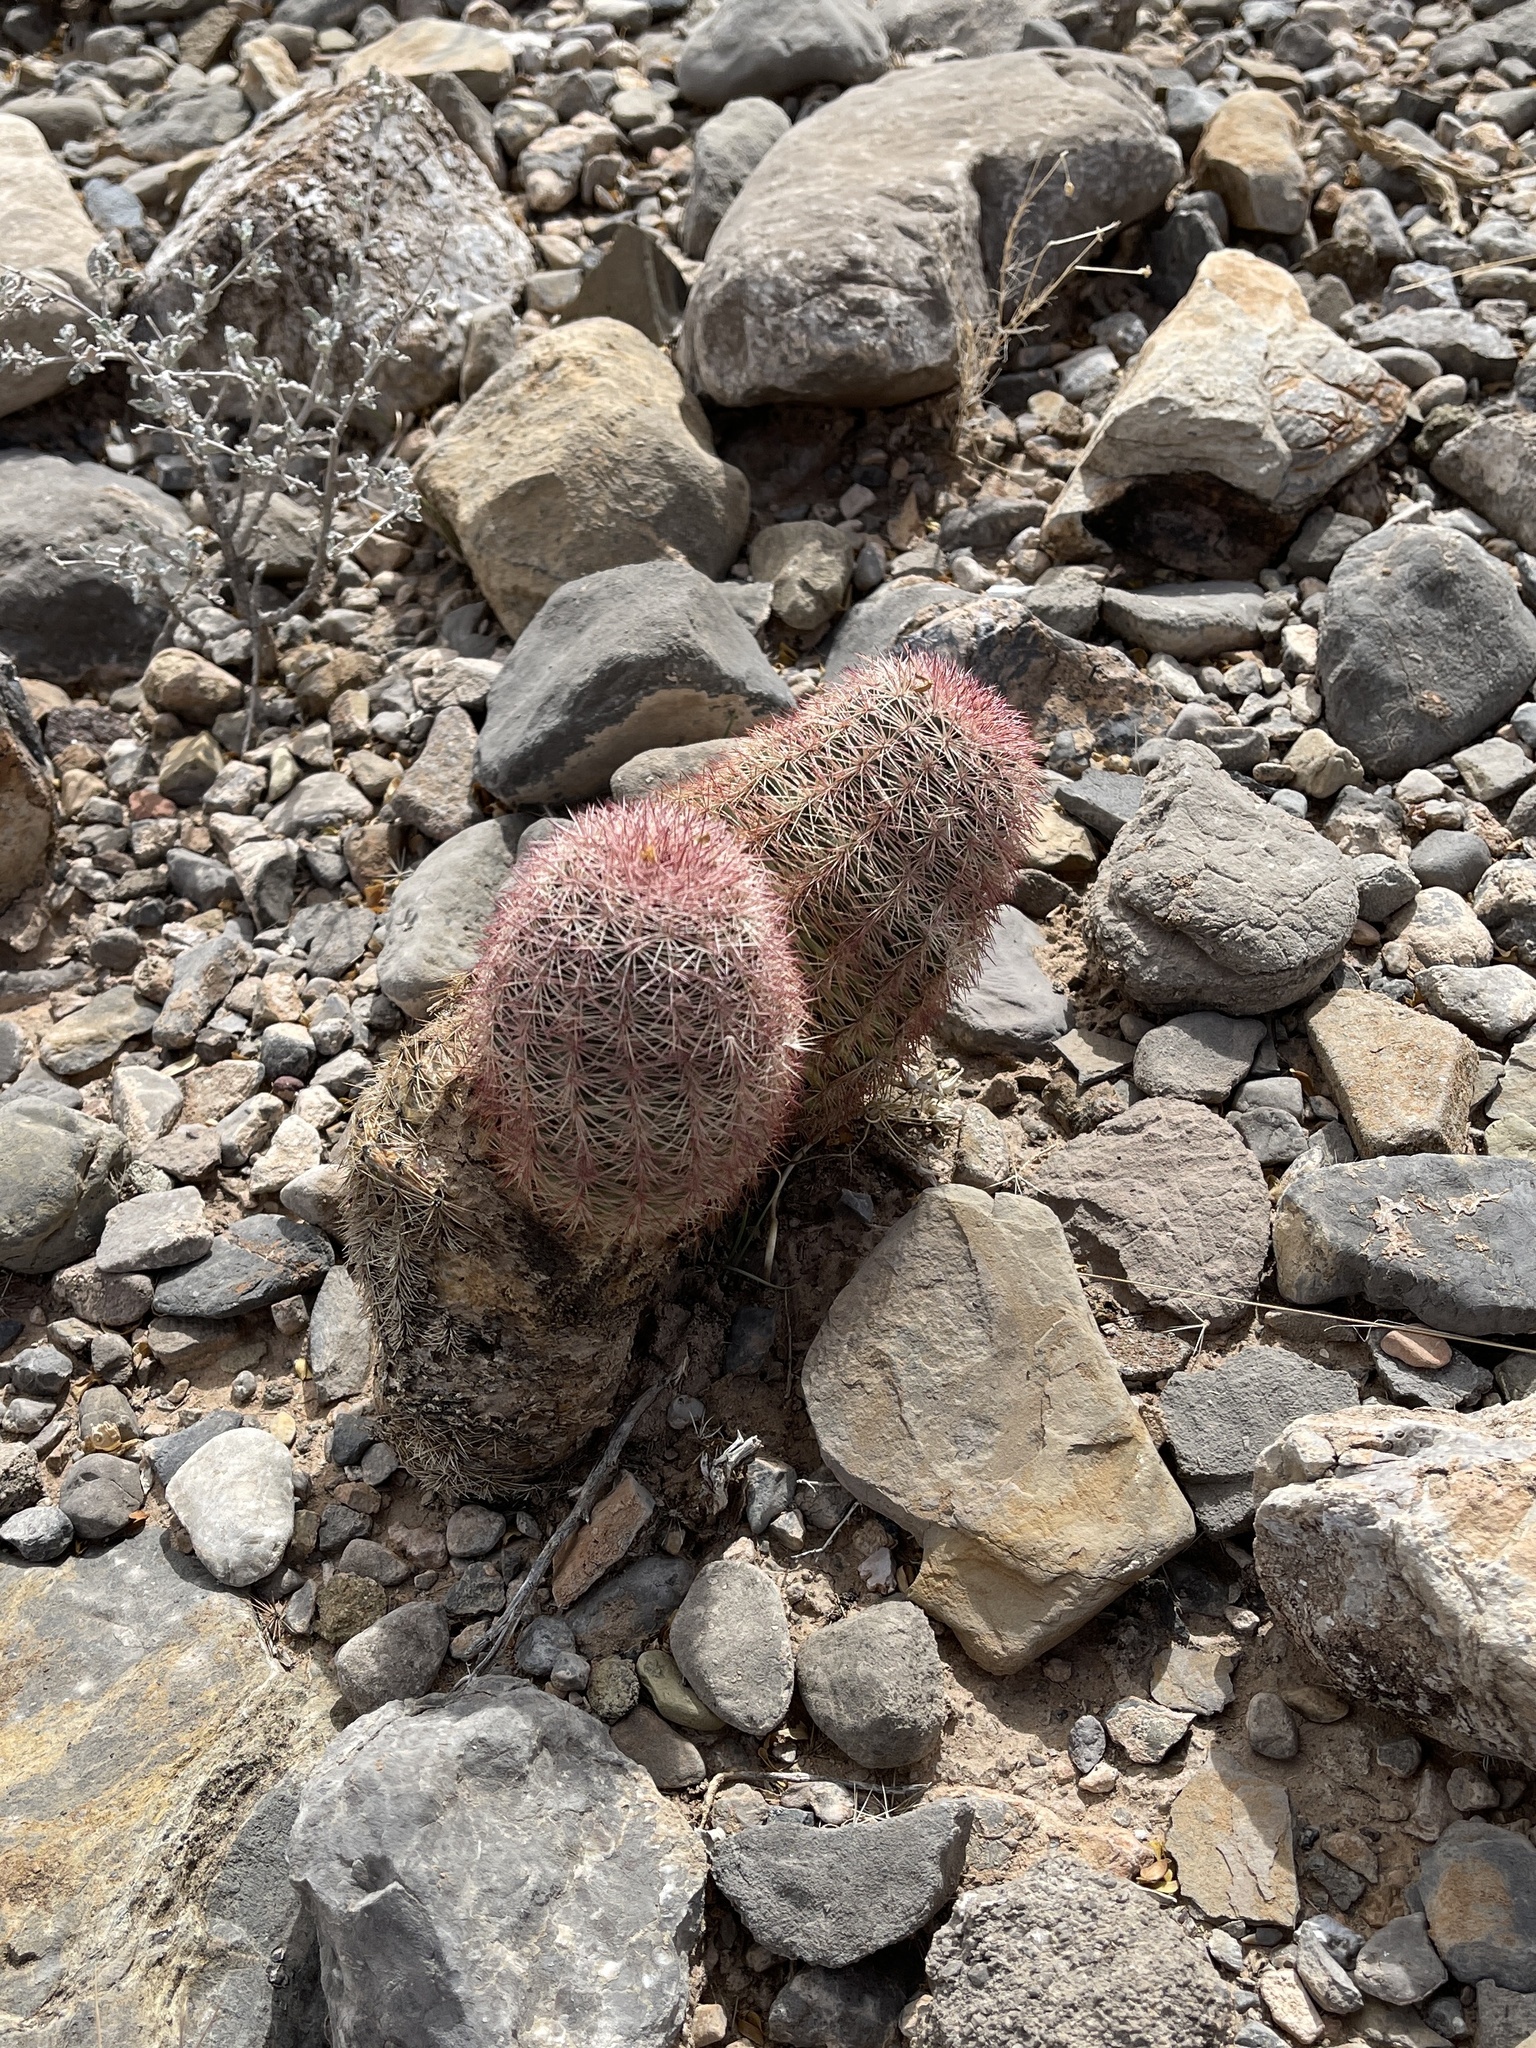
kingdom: Plantae
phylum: Tracheophyta
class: Magnoliopsida
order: Caryophyllales
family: Cactaceae
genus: Echinocereus
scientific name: Echinocereus dasyacanthus
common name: Spiny hedgehog cactus
